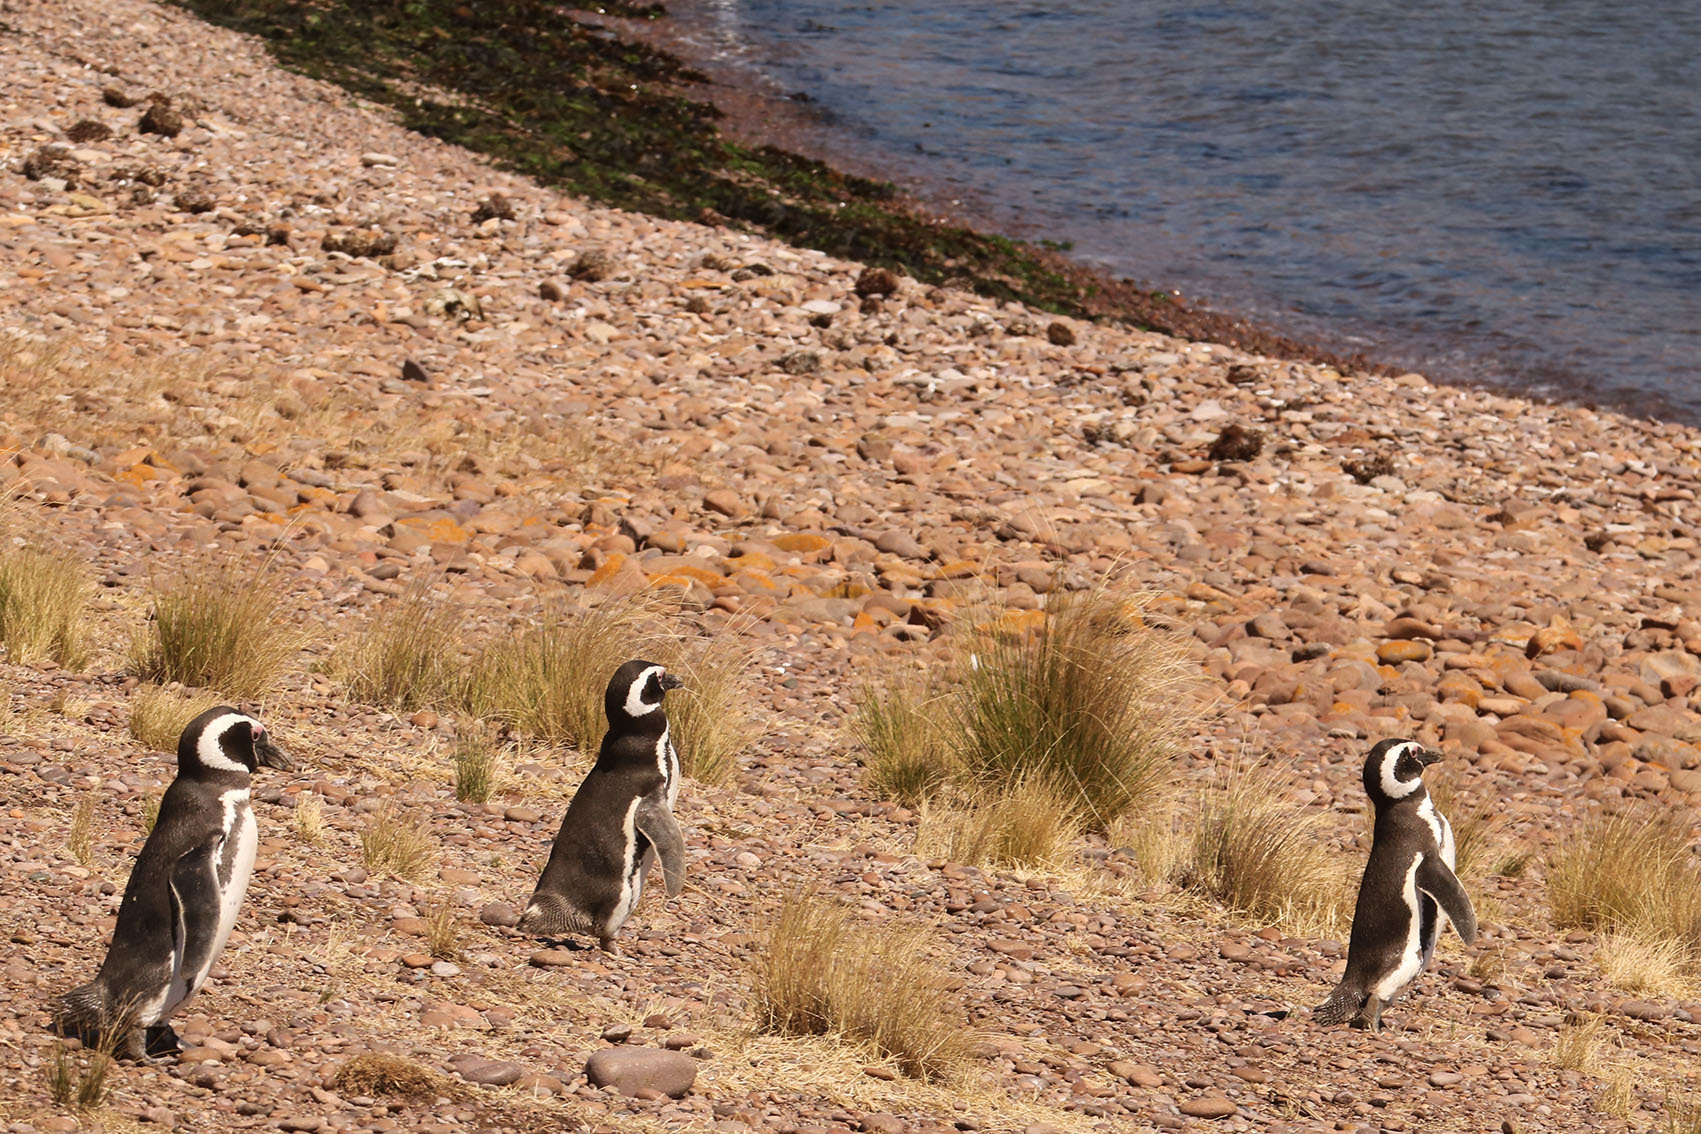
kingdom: Animalia
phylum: Chordata
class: Aves
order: Sphenisciformes
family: Spheniscidae
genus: Spheniscus
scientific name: Spheniscus magellanicus
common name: Magellanic penguin
